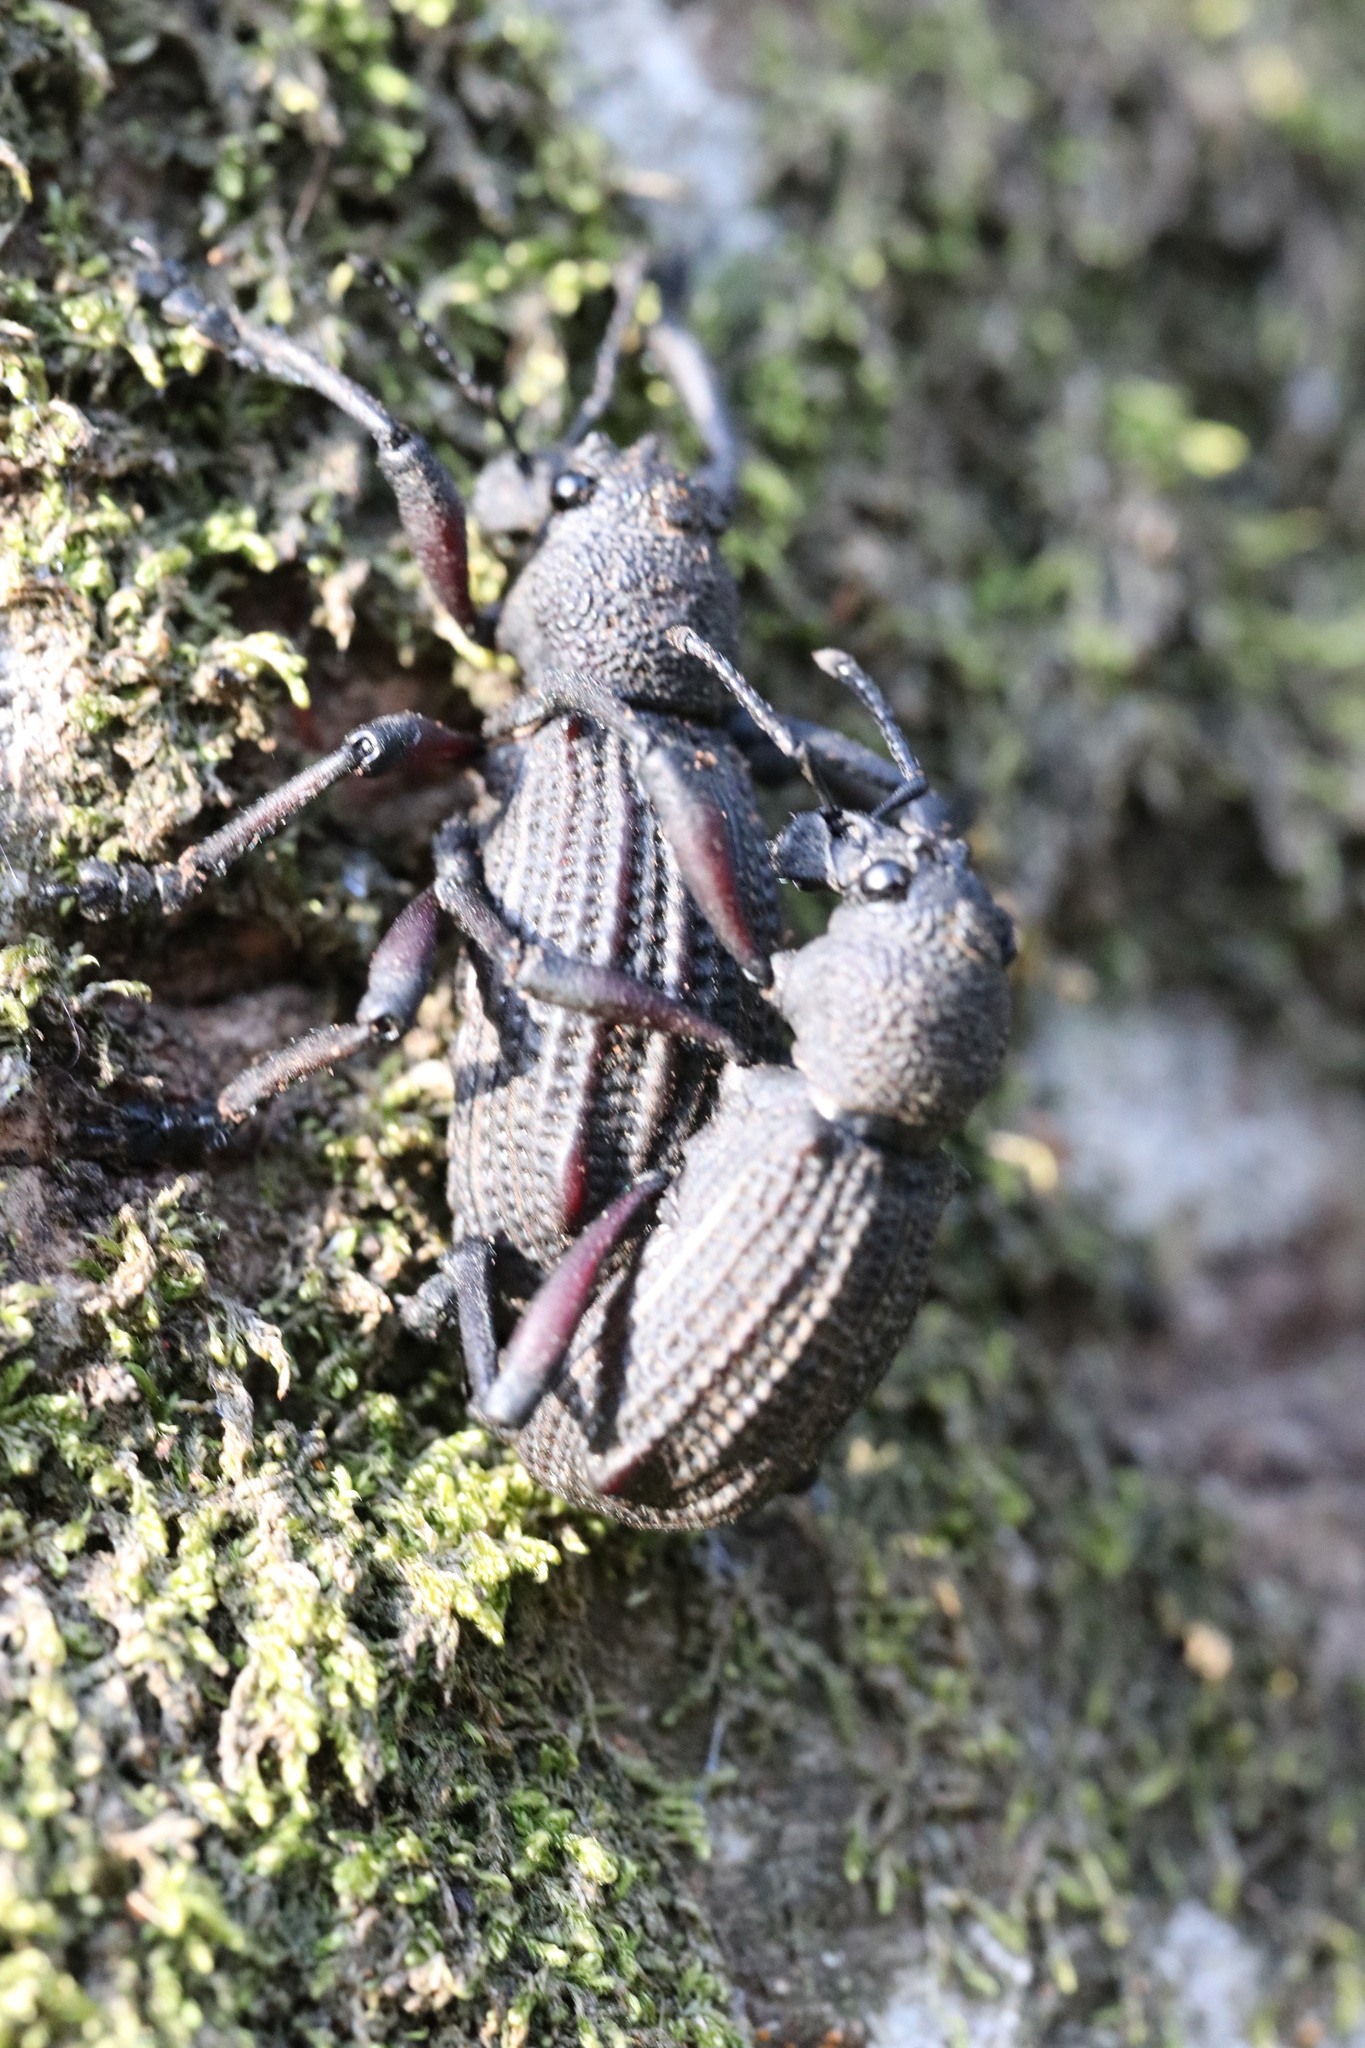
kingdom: Animalia
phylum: Arthropoda
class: Insecta
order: Coleoptera
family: Curculionidae
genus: Aegorhinus
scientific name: Aegorhinus
